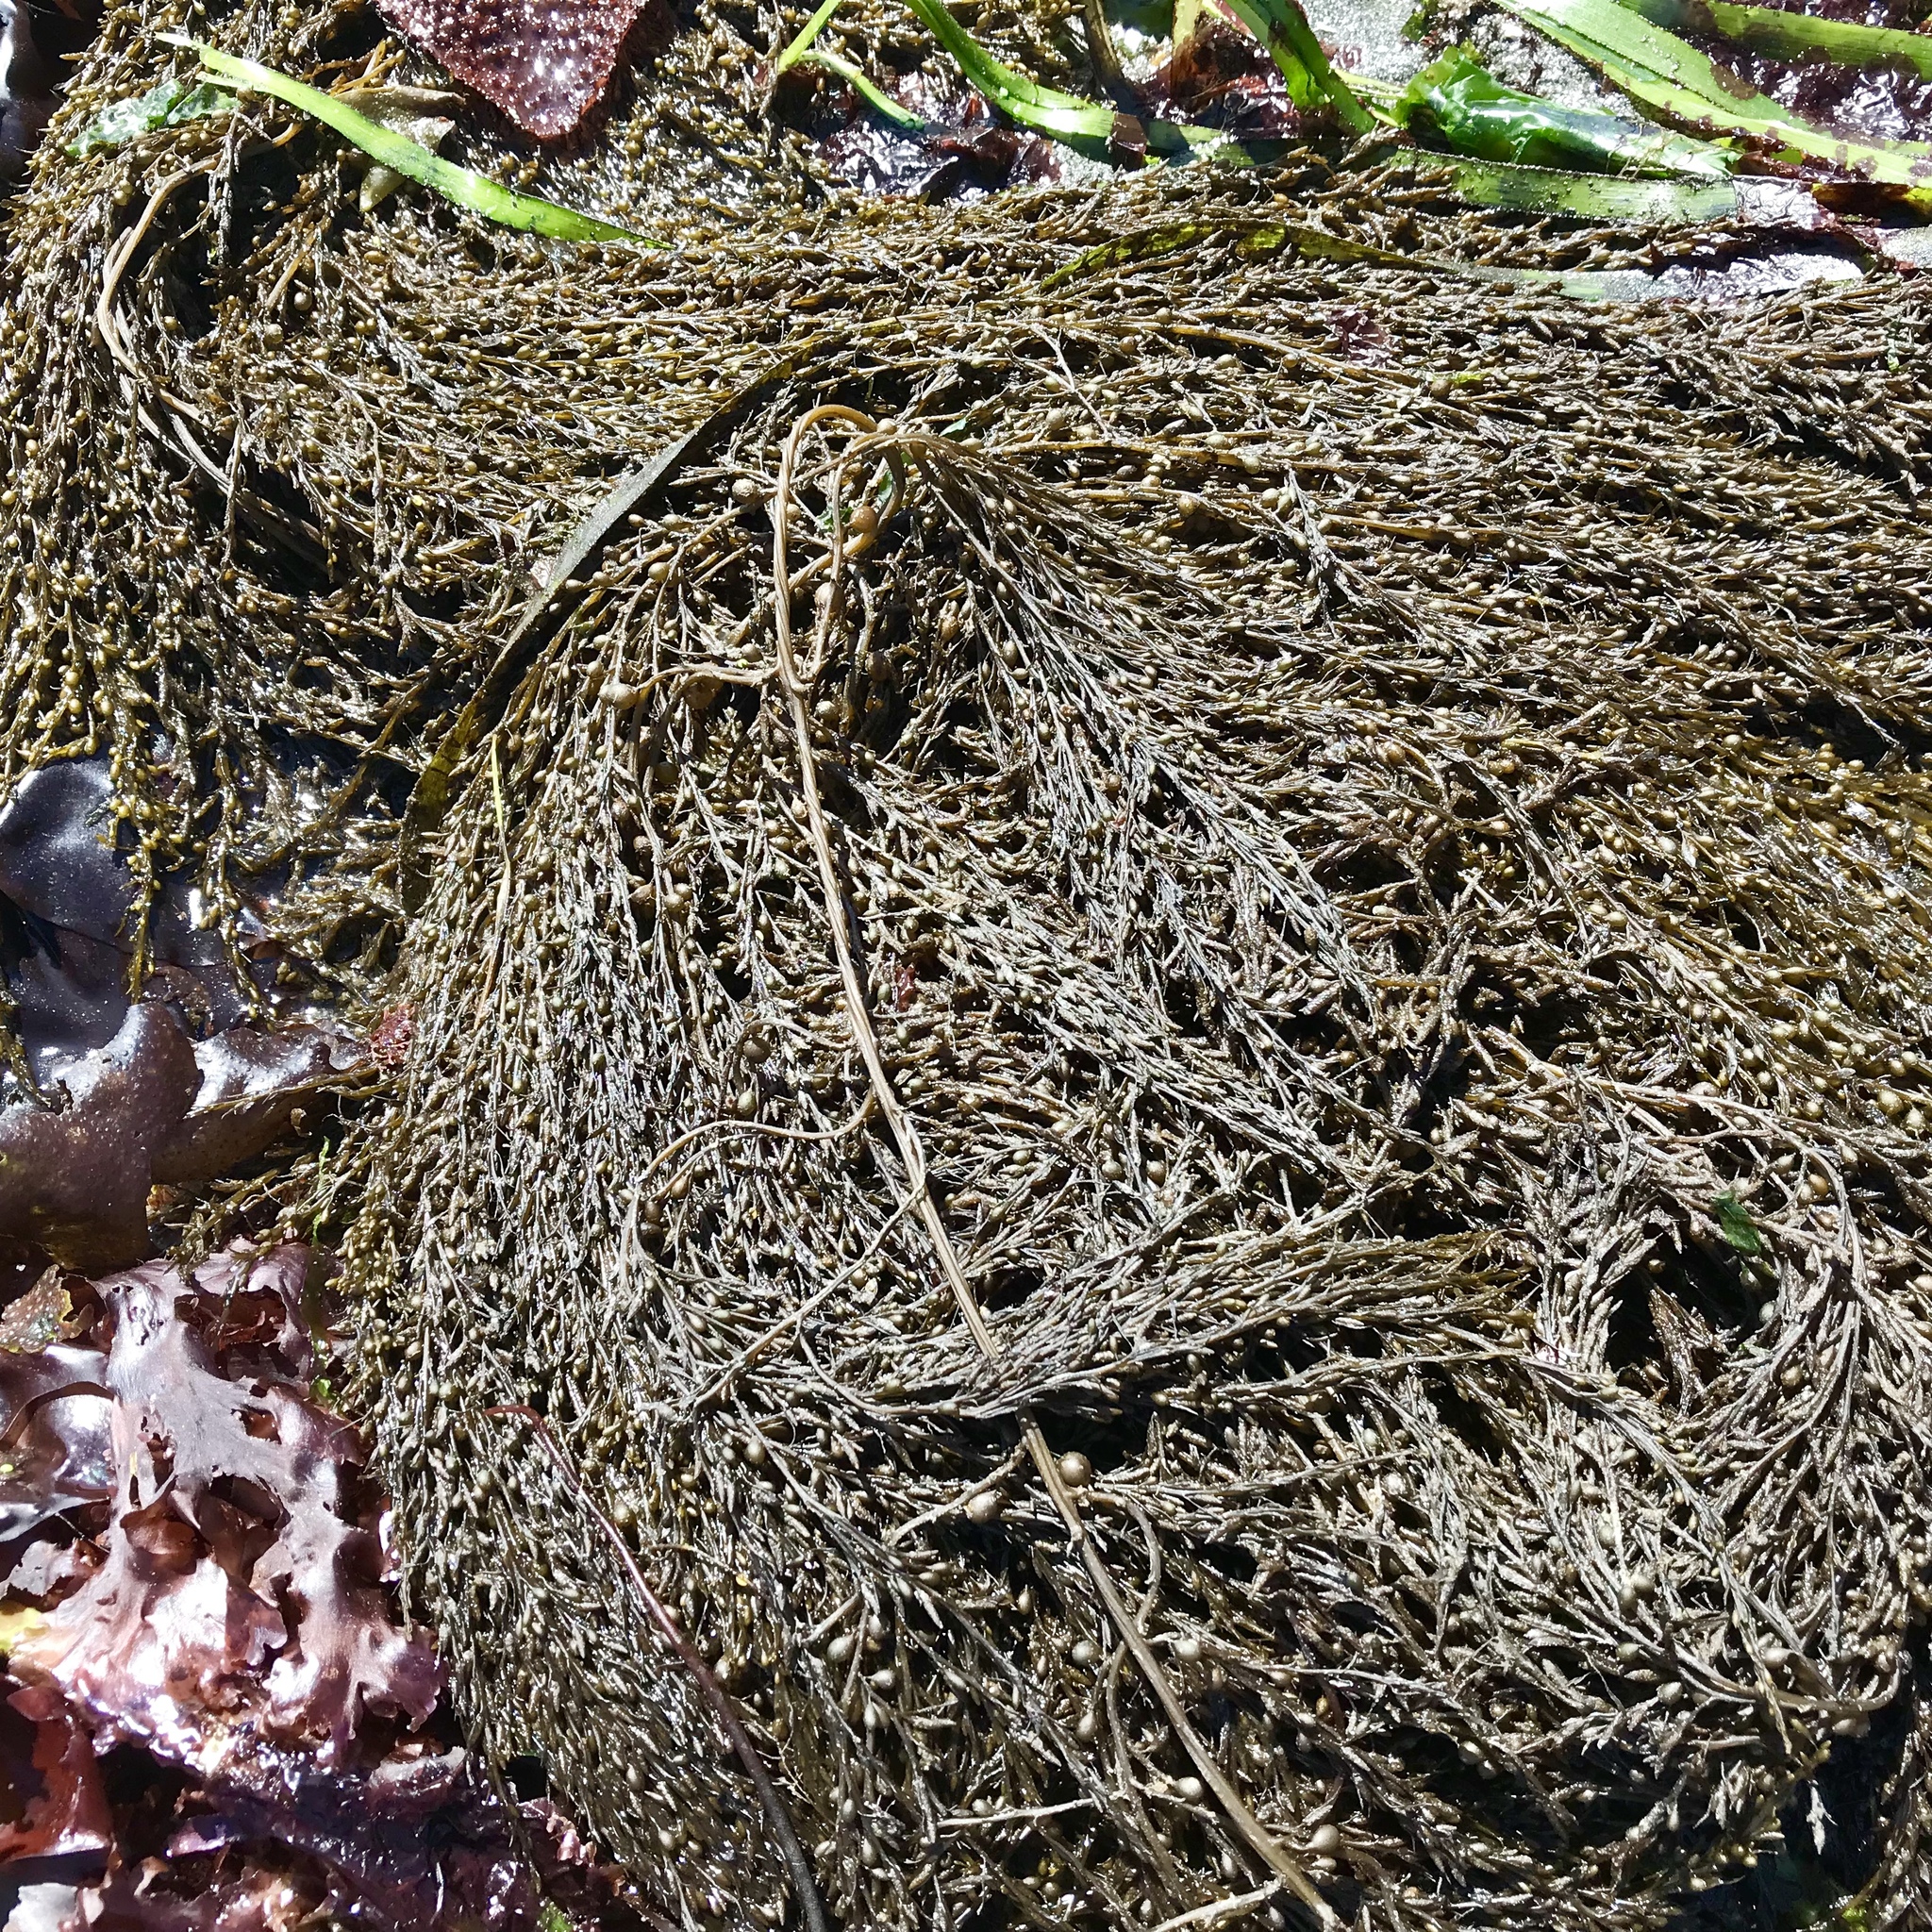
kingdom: Chromista
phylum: Ochrophyta
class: Phaeophyceae
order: Fucales
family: Sargassaceae
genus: Sargassum
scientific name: Sargassum muticum
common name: Japweed
